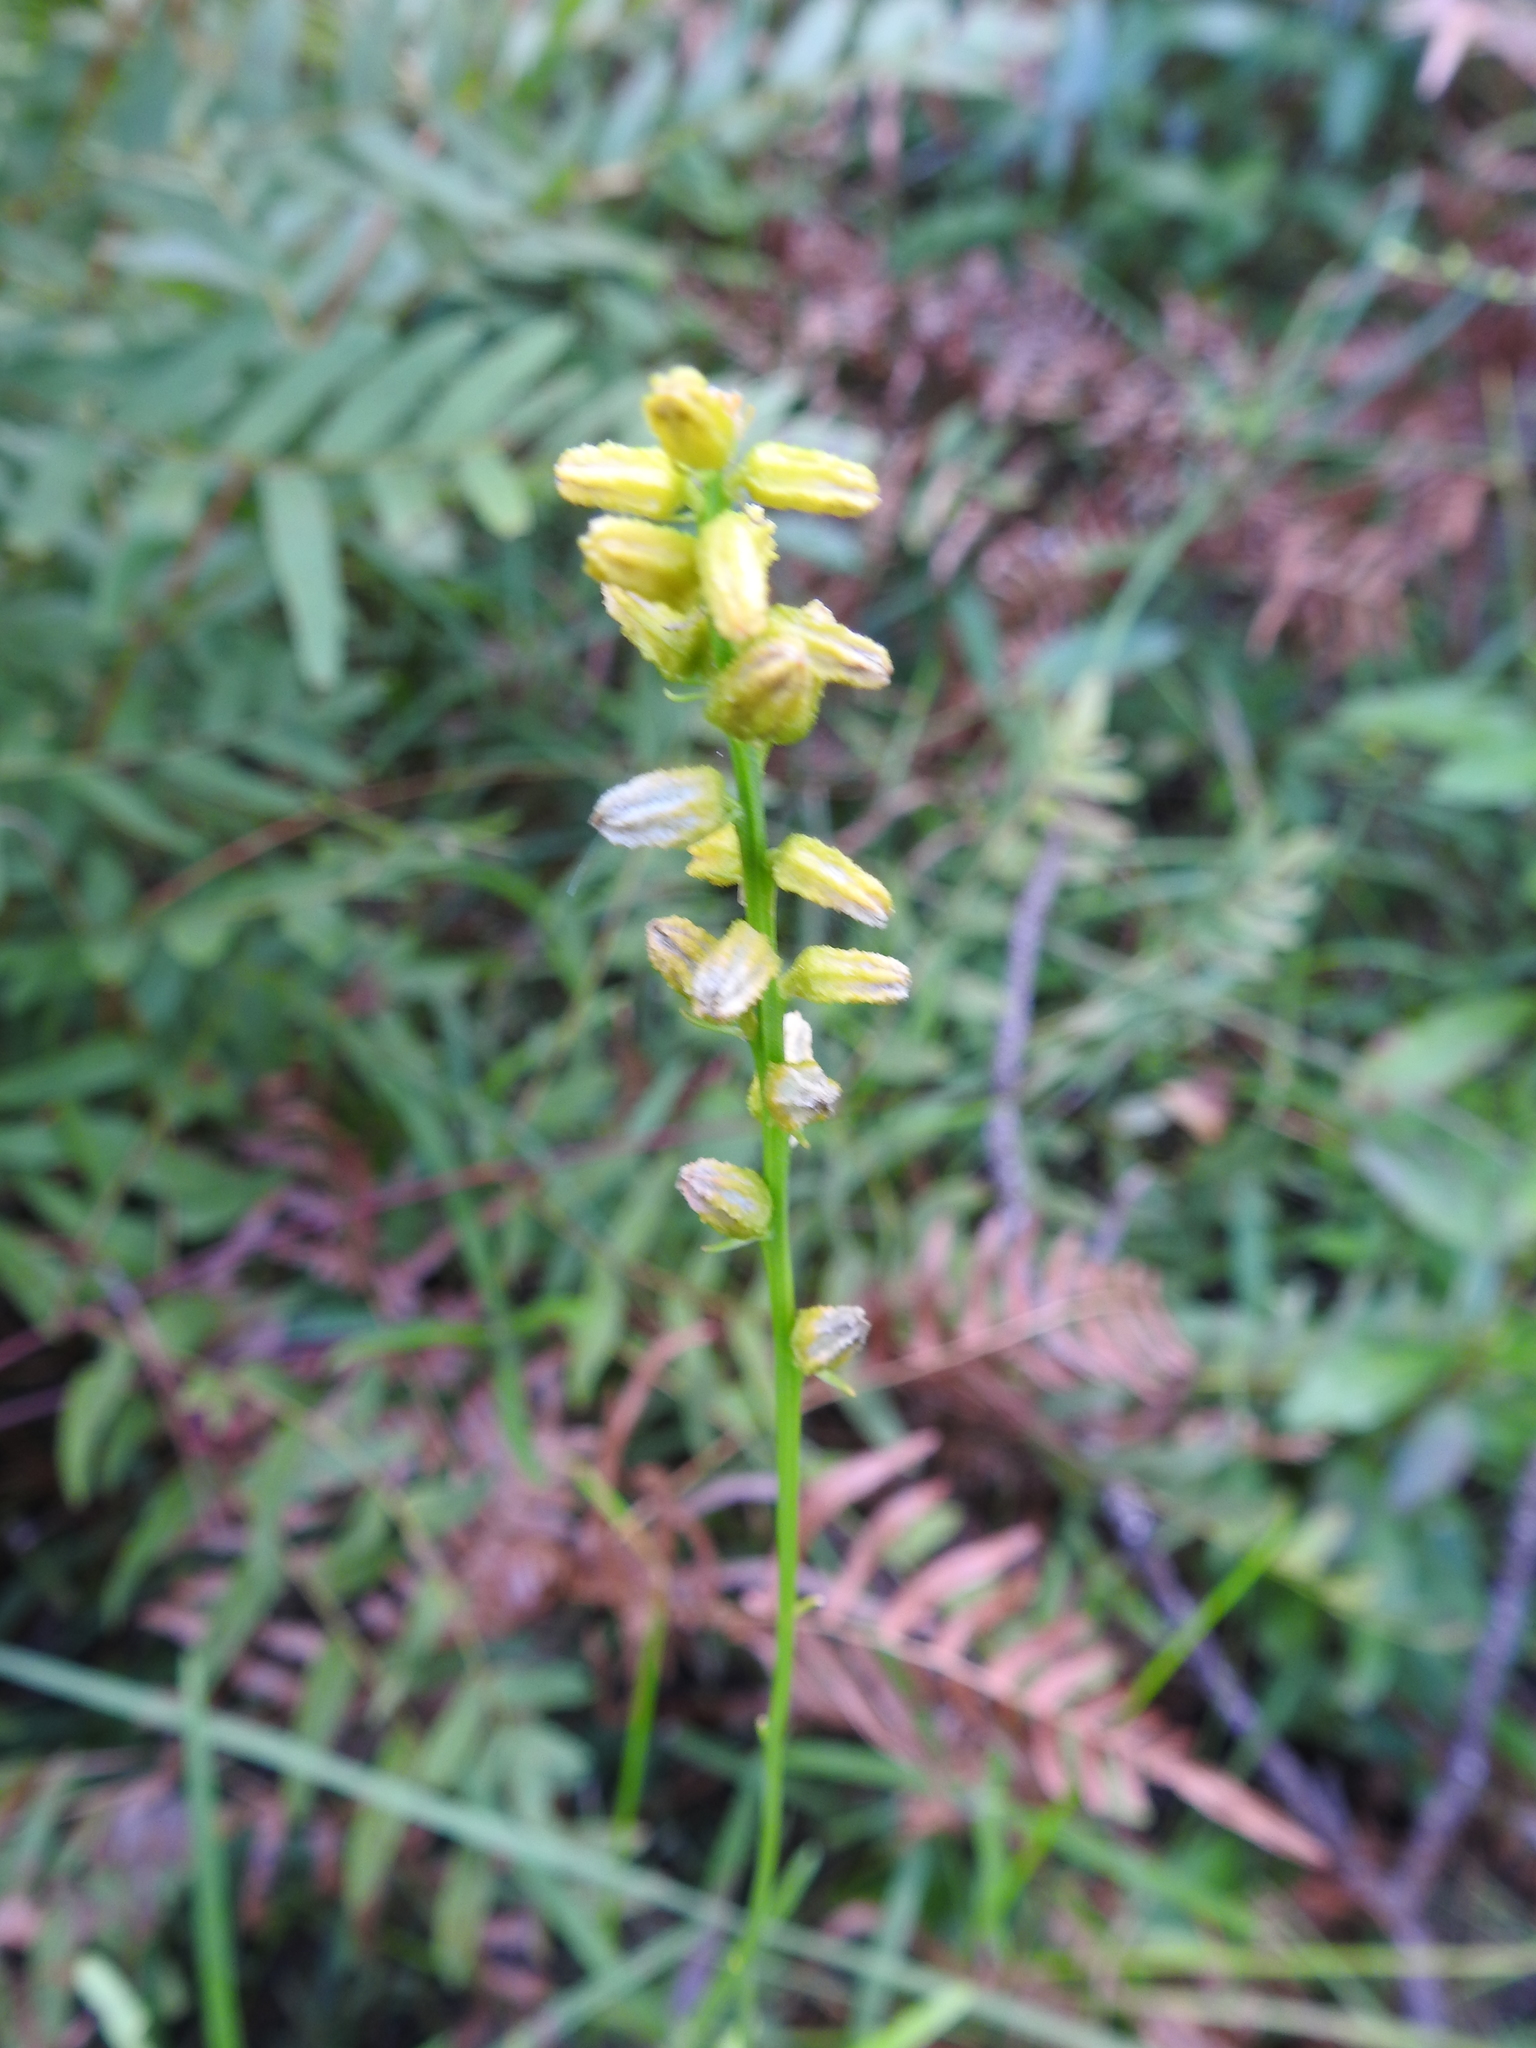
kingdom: Plantae
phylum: Tracheophyta
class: Liliopsida
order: Dioscoreales
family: Nartheciaceae
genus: Aletris
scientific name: Aletris aurea
